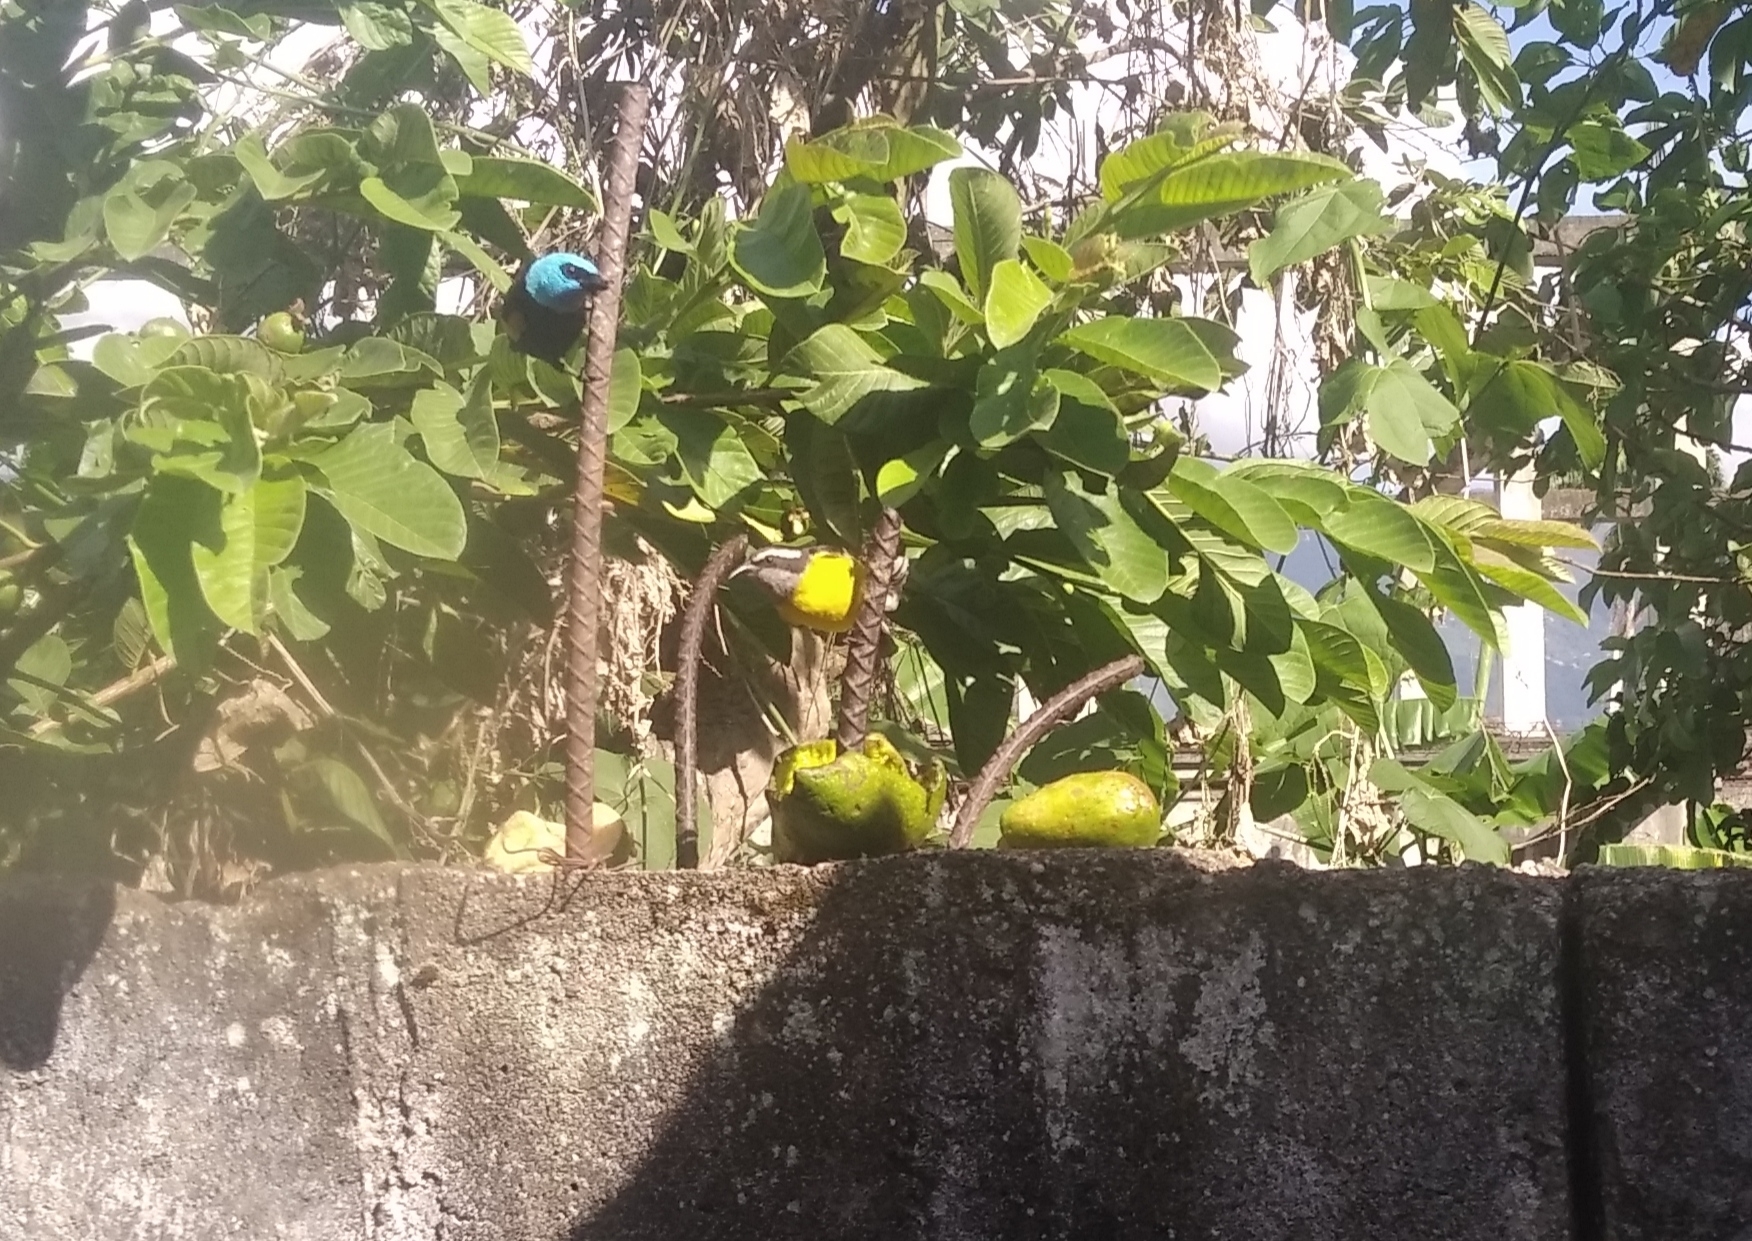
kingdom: Animalia
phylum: Chordata
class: Aves
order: Passeriformes
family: Thraupidae
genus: Coereba
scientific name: Coereba flaveola
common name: Bananaquit
